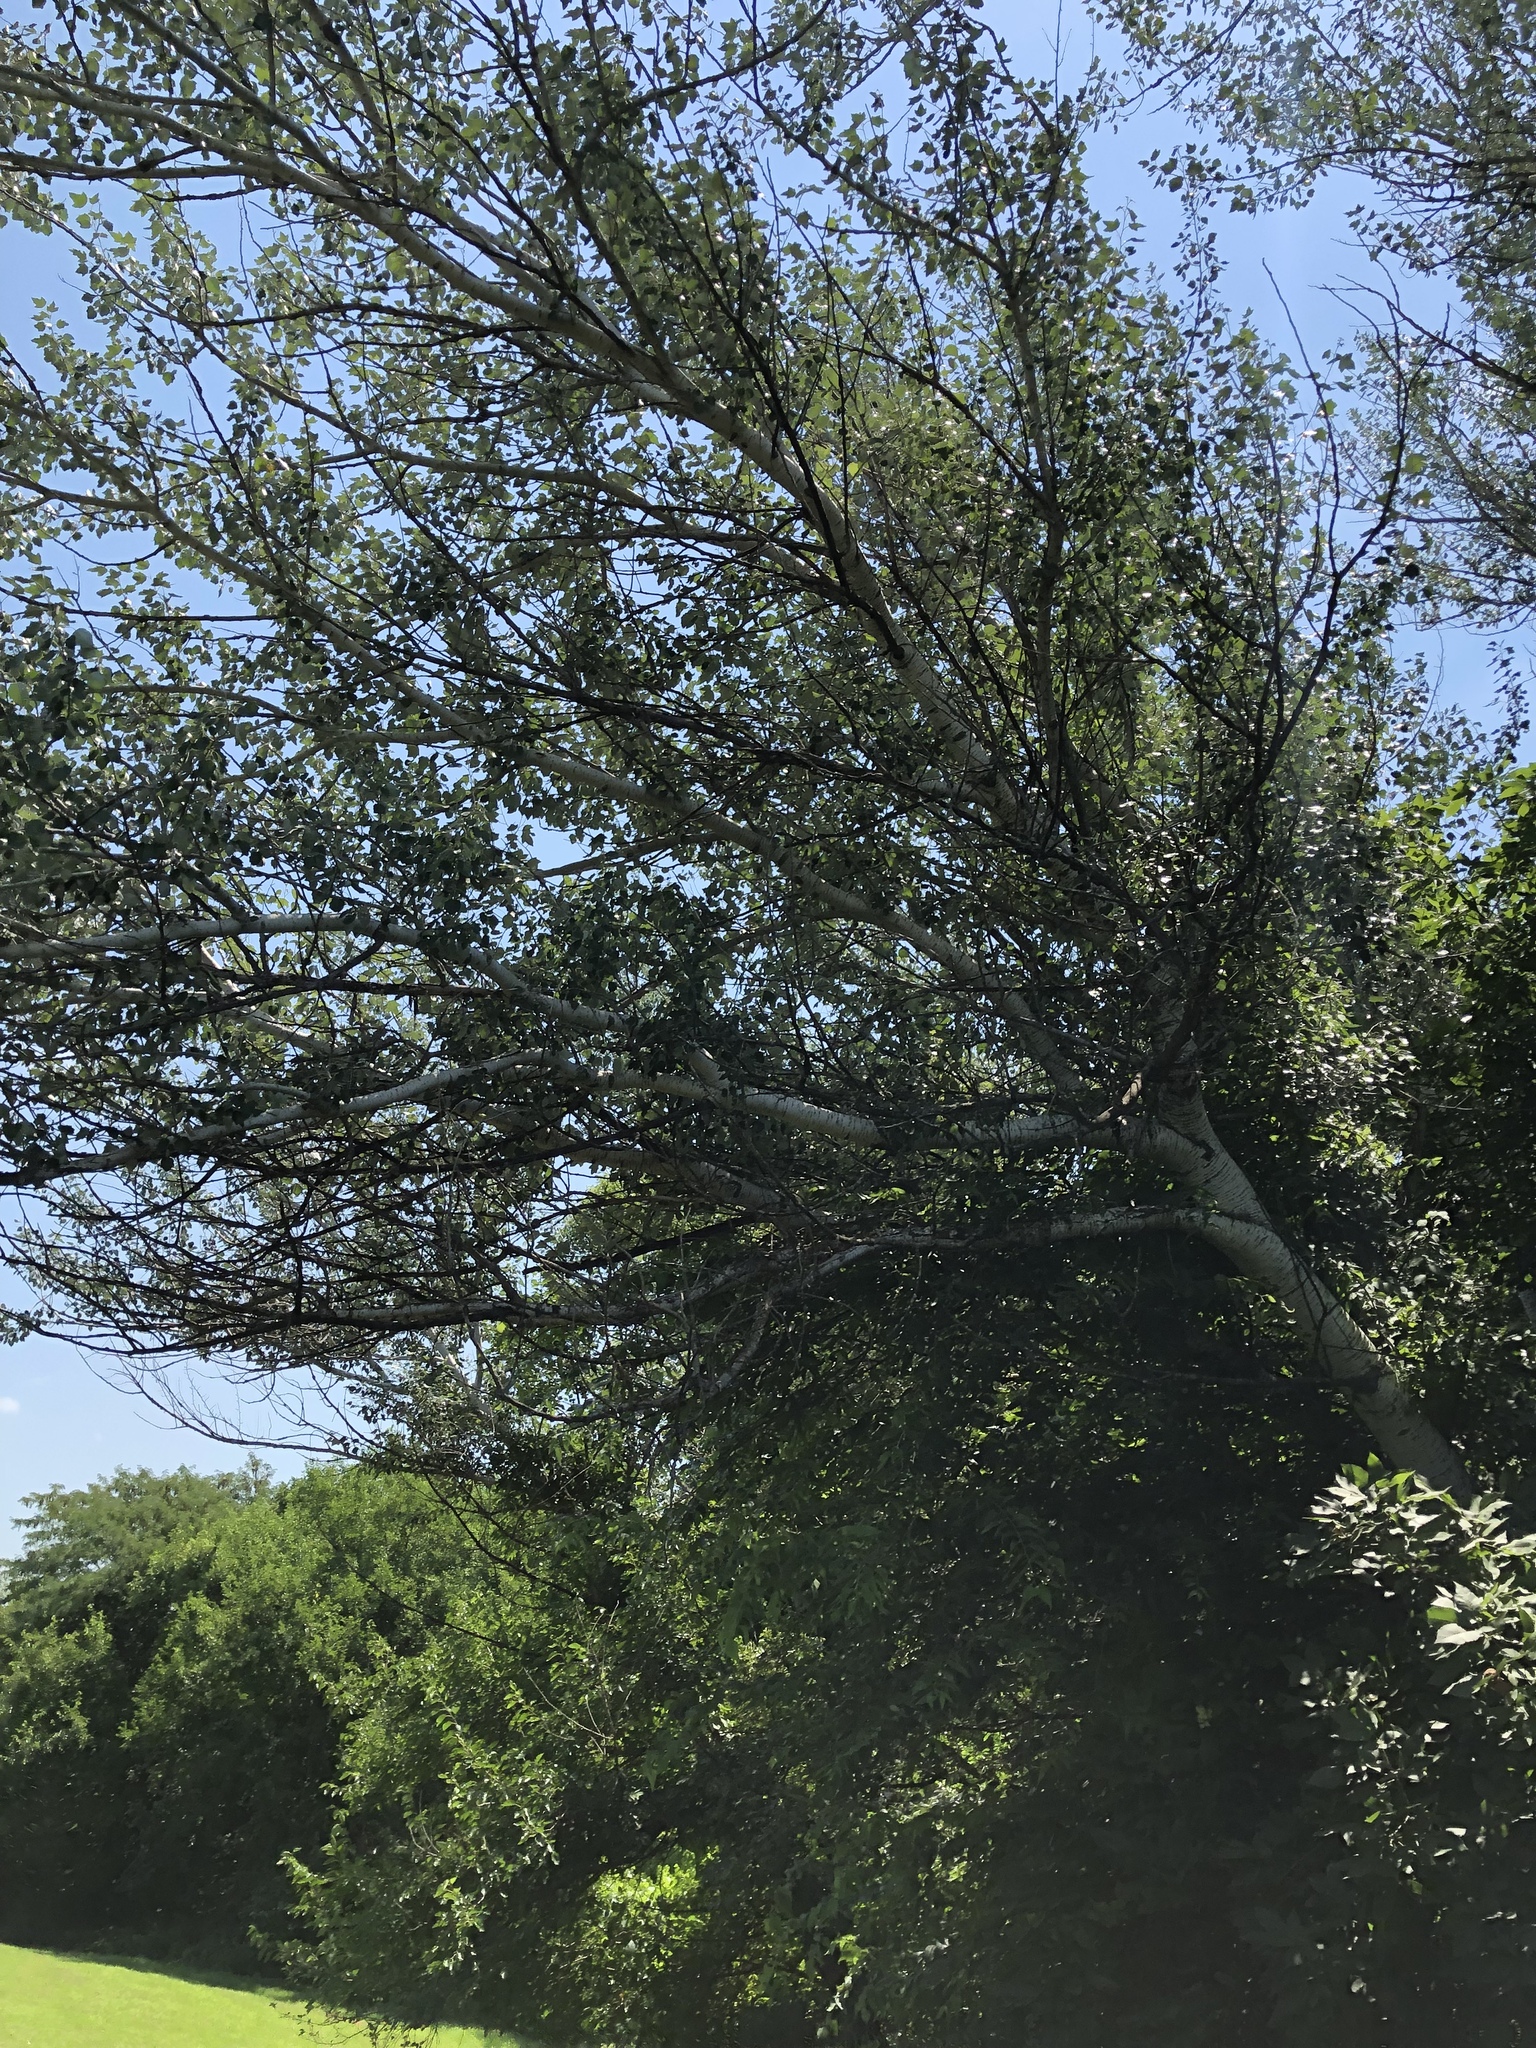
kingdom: Plantae
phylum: Tracheophyta
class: Magnoliopsida
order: Malpighiales
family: Salicaceae
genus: Populus
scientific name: Populus alba
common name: White poplar
